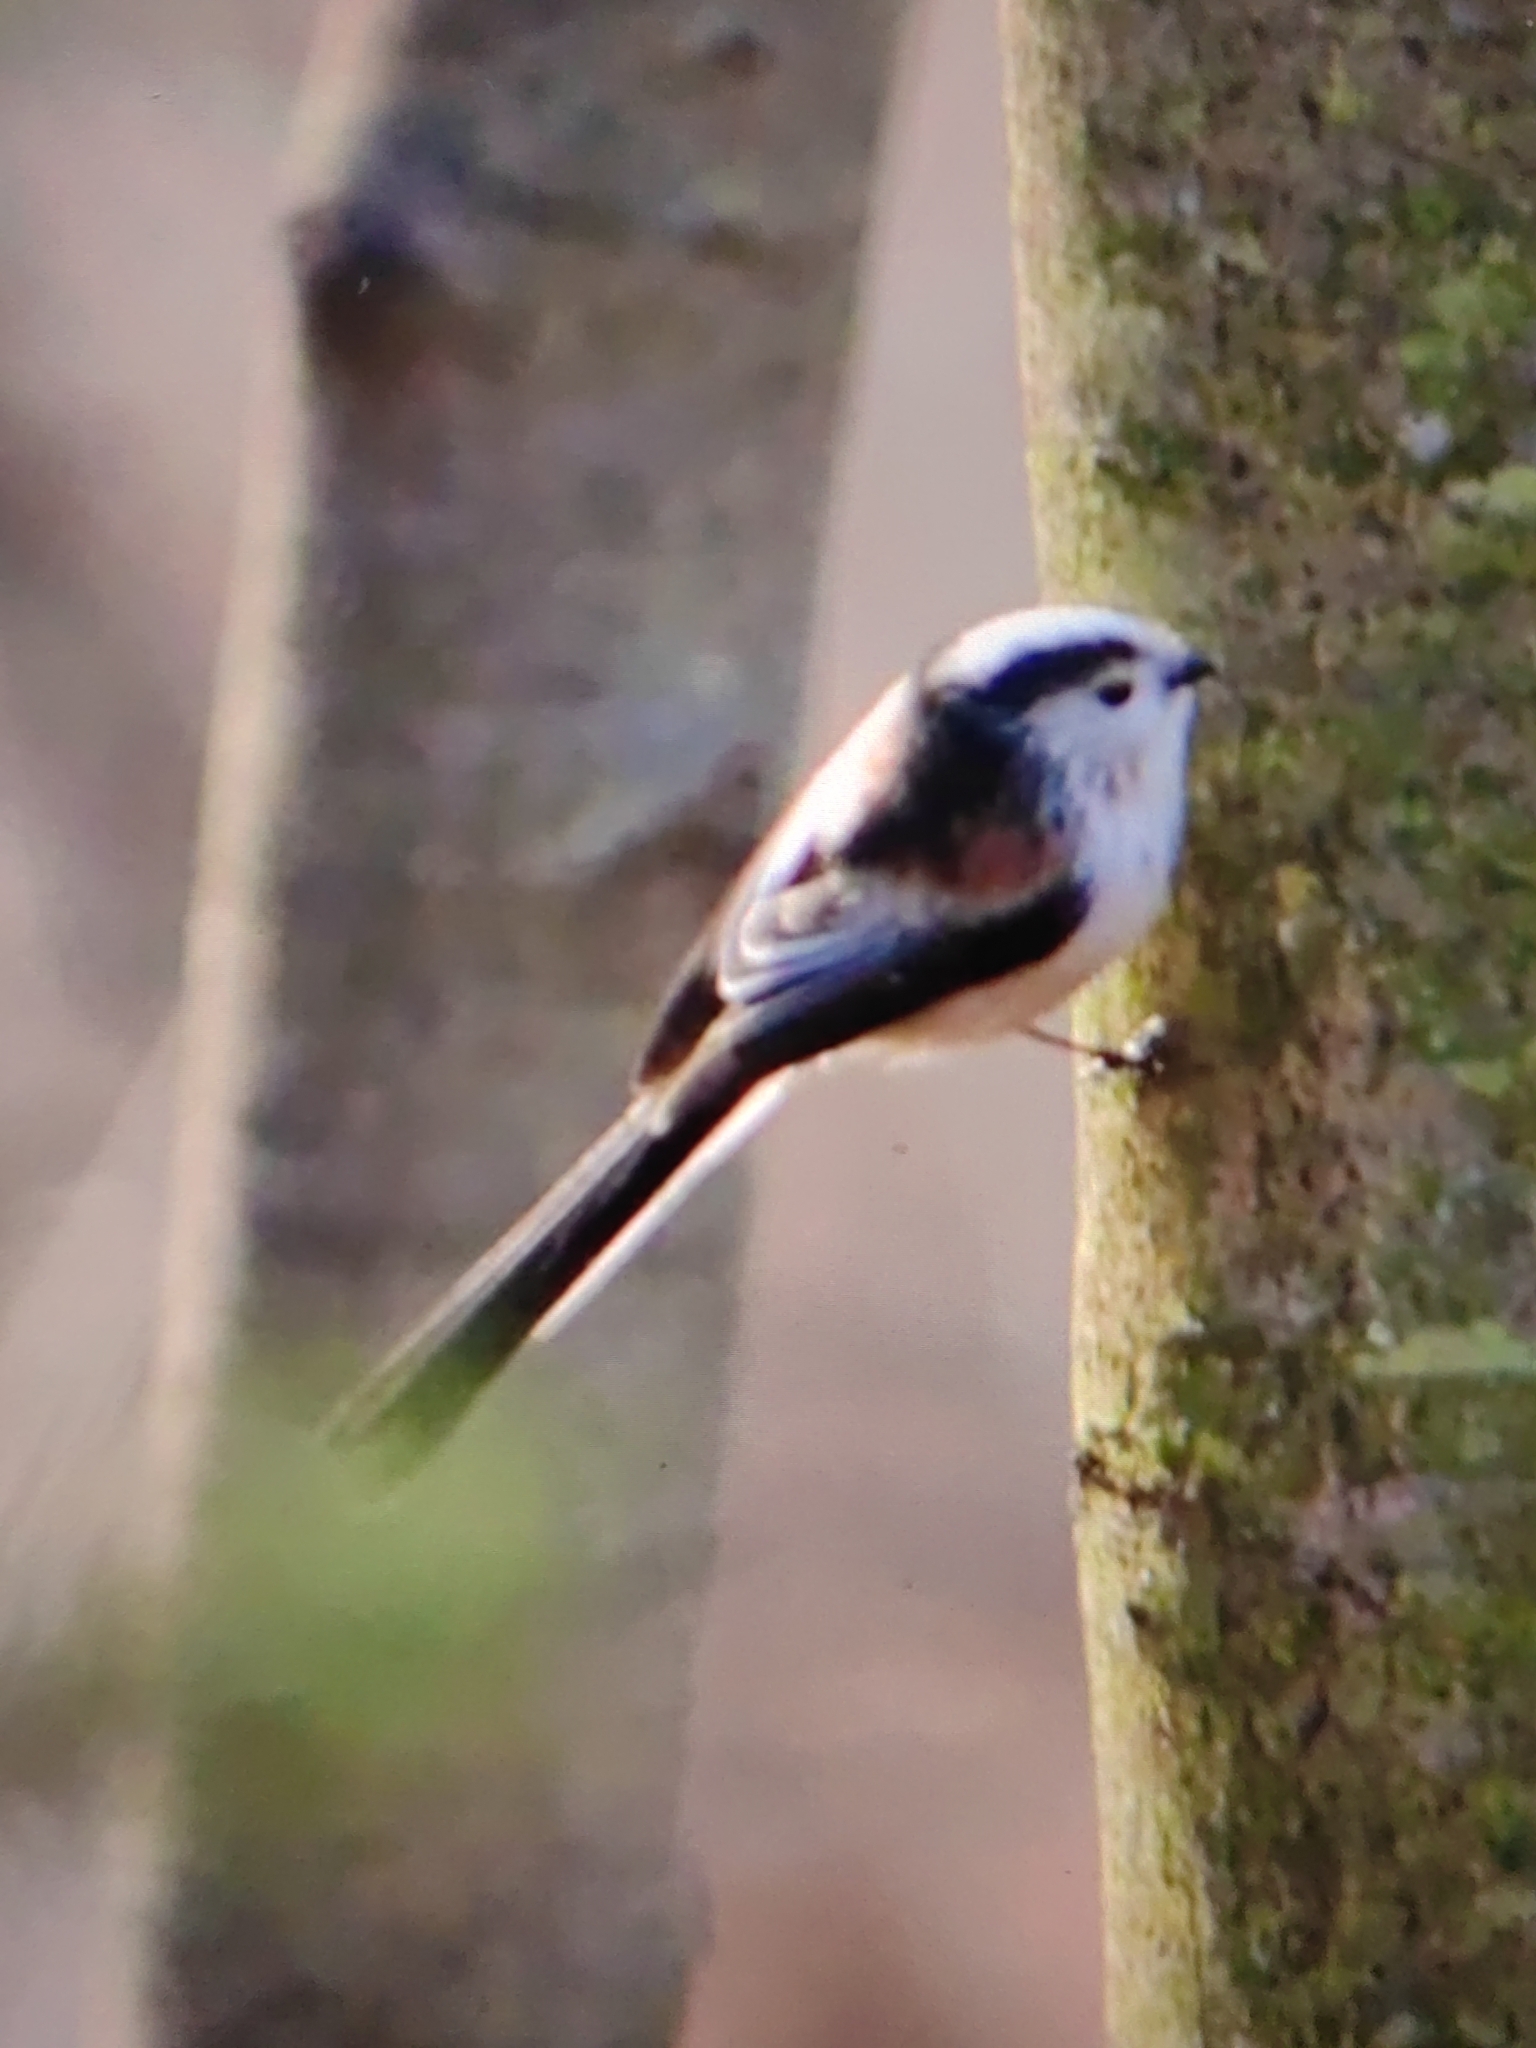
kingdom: Animalia
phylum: Chordata
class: Aves
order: Passeriformes
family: Aegithalidae
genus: Aegithalos
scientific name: Aegithalos caudatus
